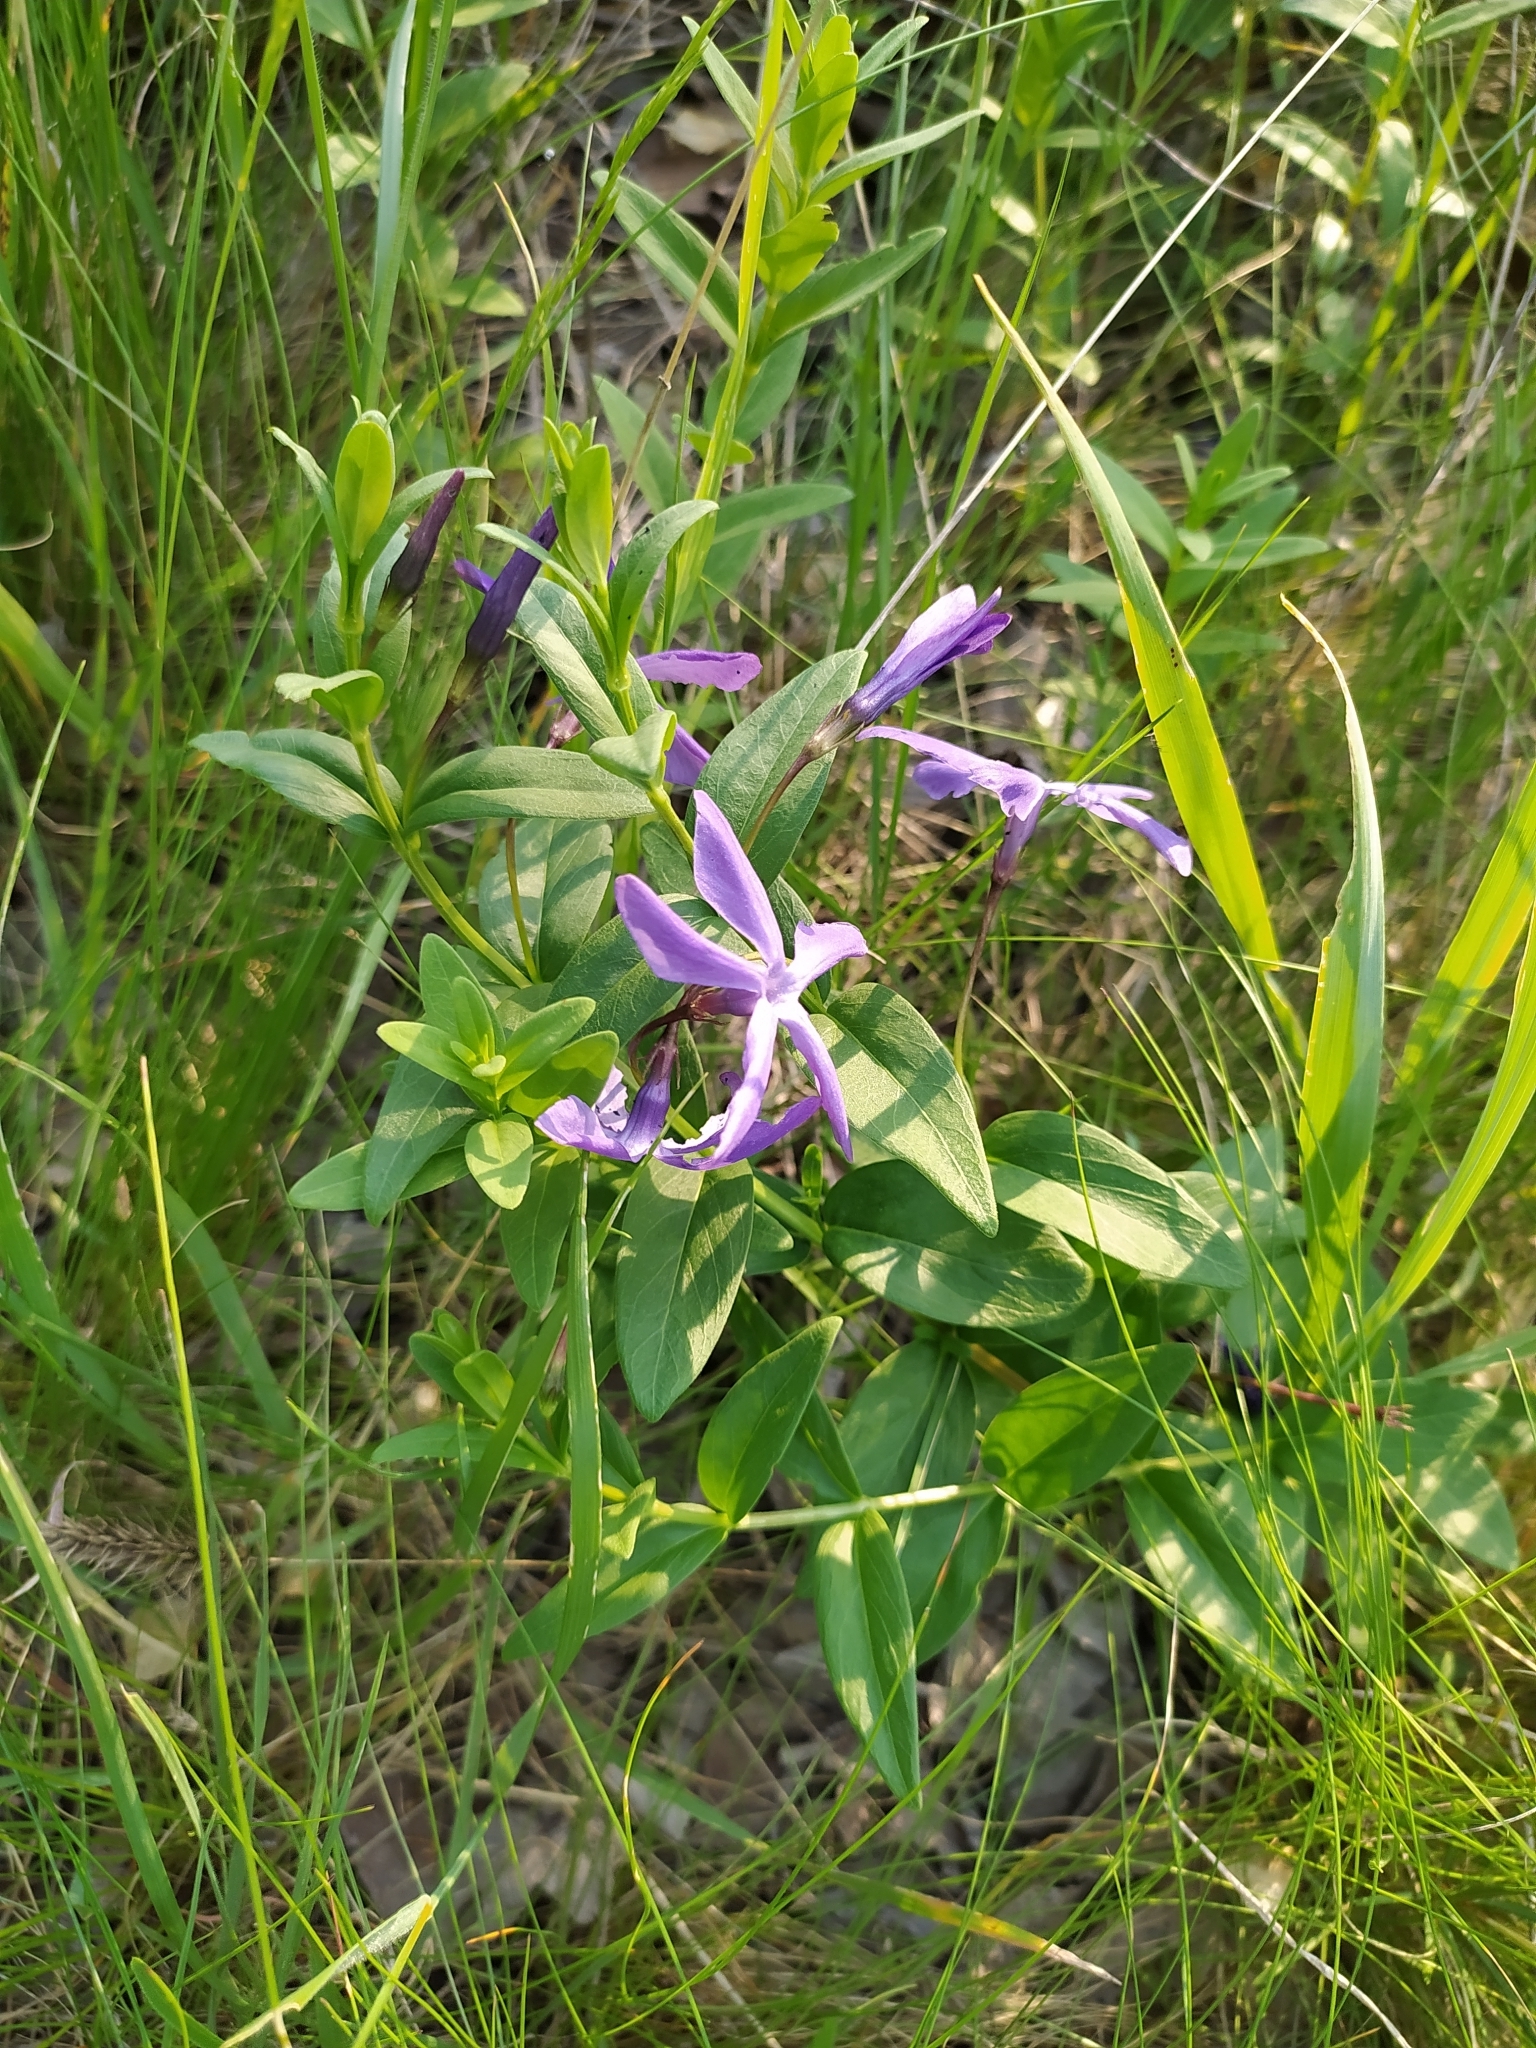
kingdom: Plantae
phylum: Tracheophyta
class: Magnoliopsida
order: Gentianales
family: Apocynaceae
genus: Vinca
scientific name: Vinca herbacea
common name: Herbaceous periwinkle
